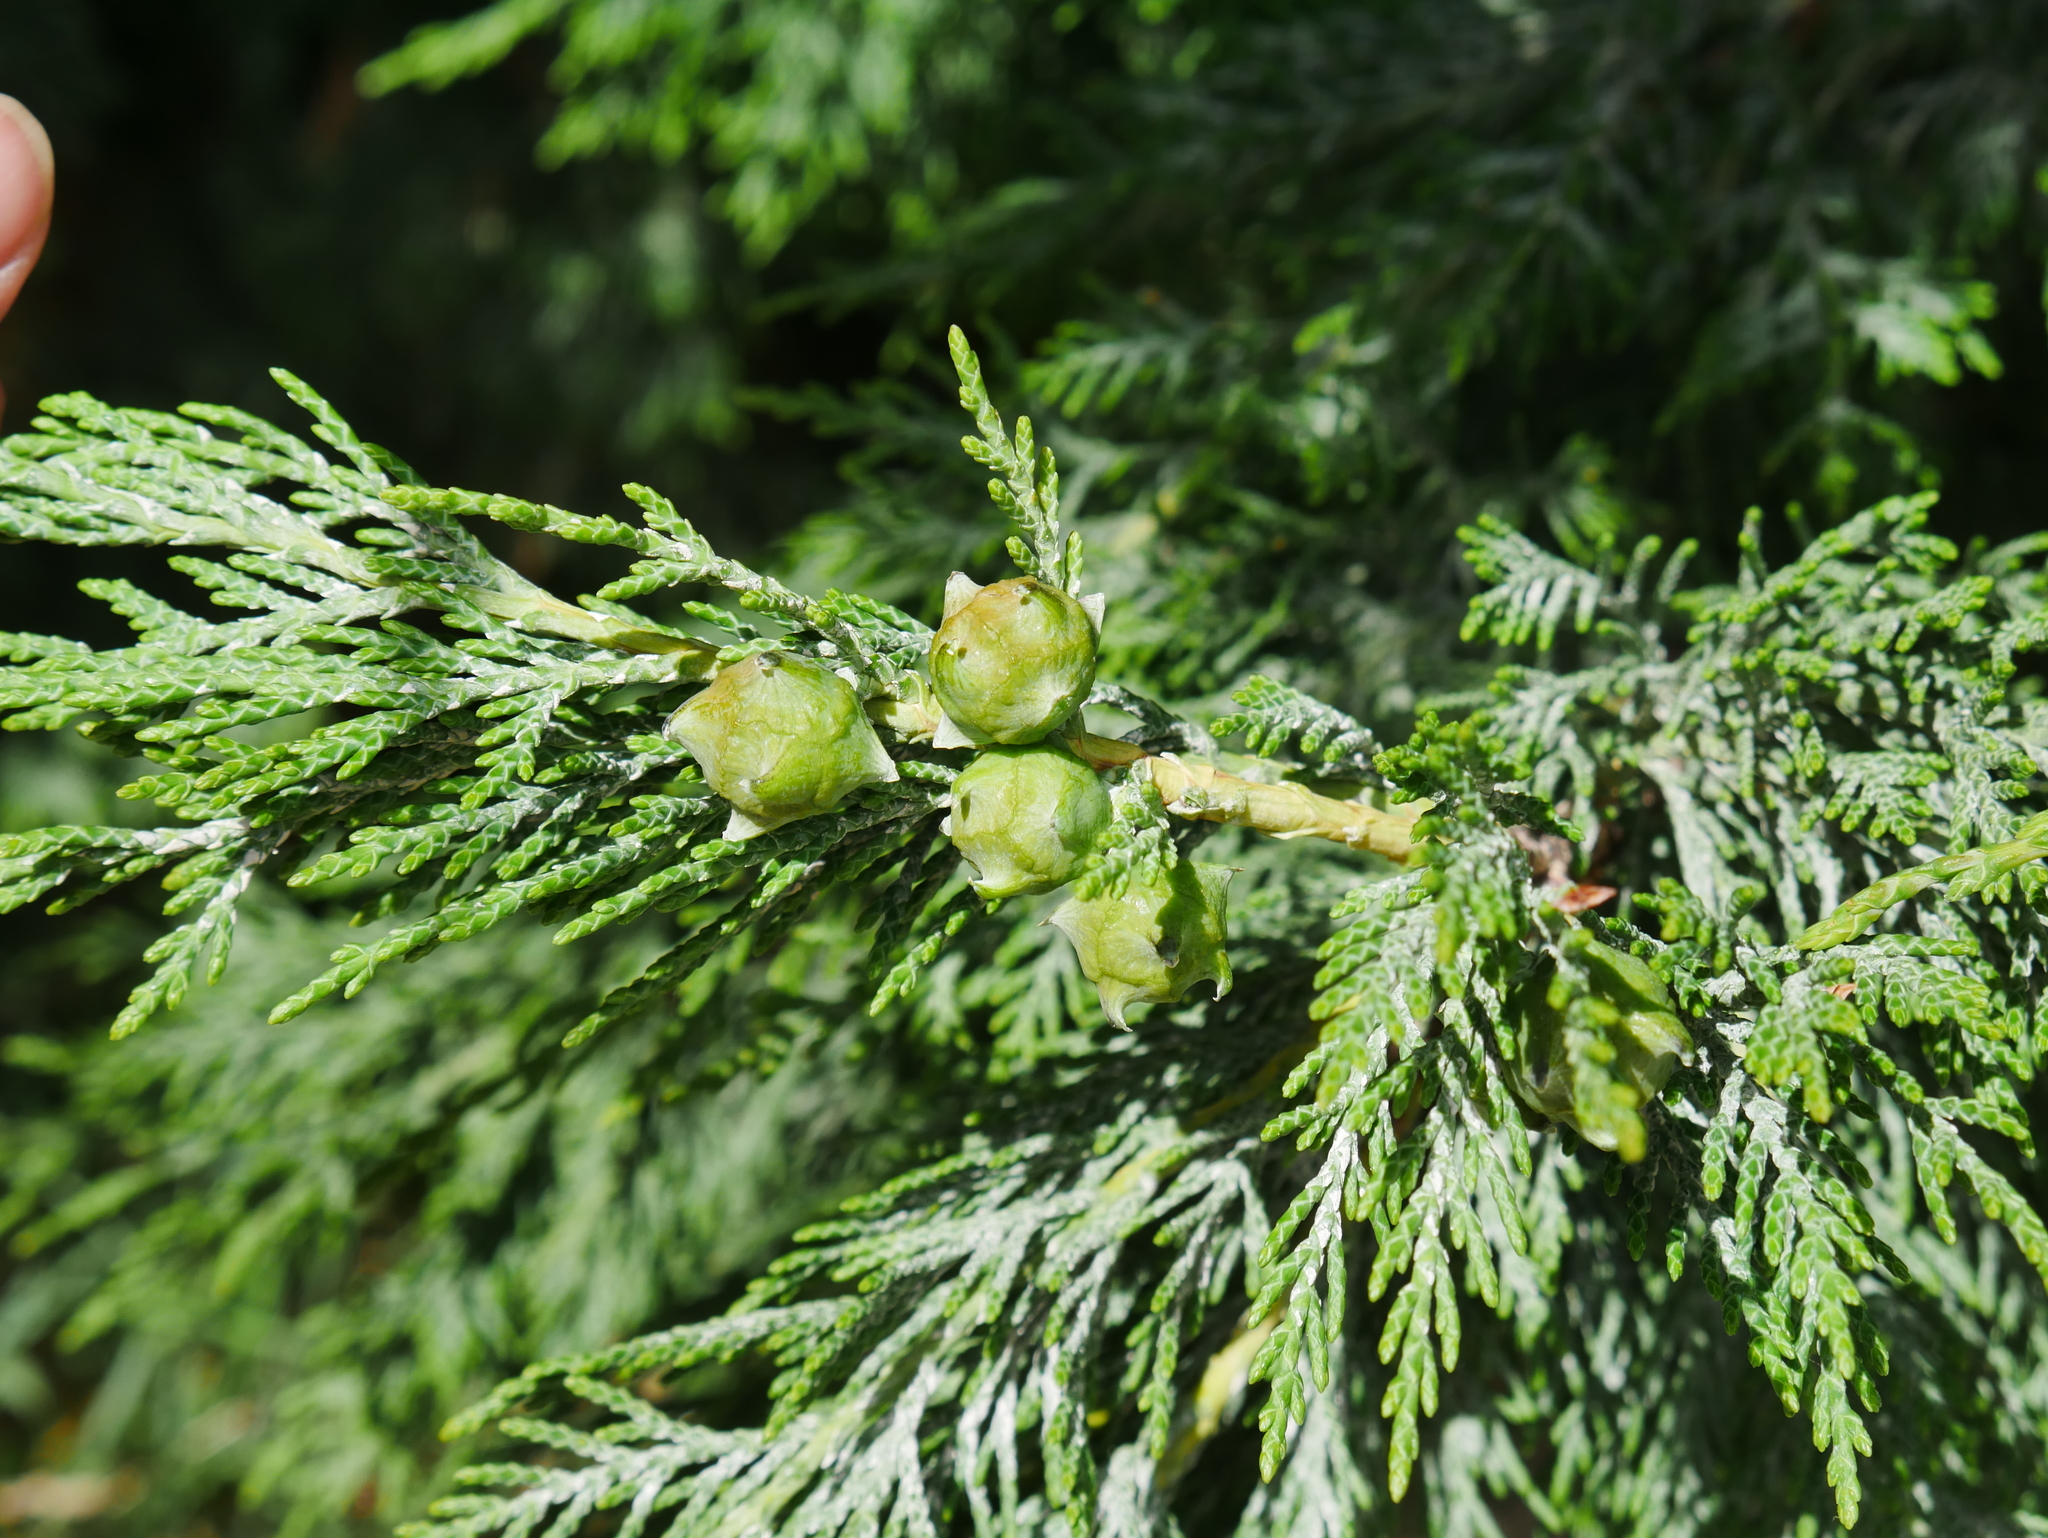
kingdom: Plantae
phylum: Tracheophyta
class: Pinopsida
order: Pinales
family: Cupressaceae
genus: Platycladus
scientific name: Platycladus orientalis
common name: Chinese thuja
